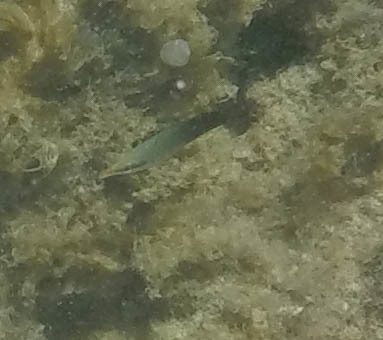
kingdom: Animalia
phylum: Chordata
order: Perciformes
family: Labridae
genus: Gomphosus
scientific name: Gomphosus varius
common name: Bird wrasse
